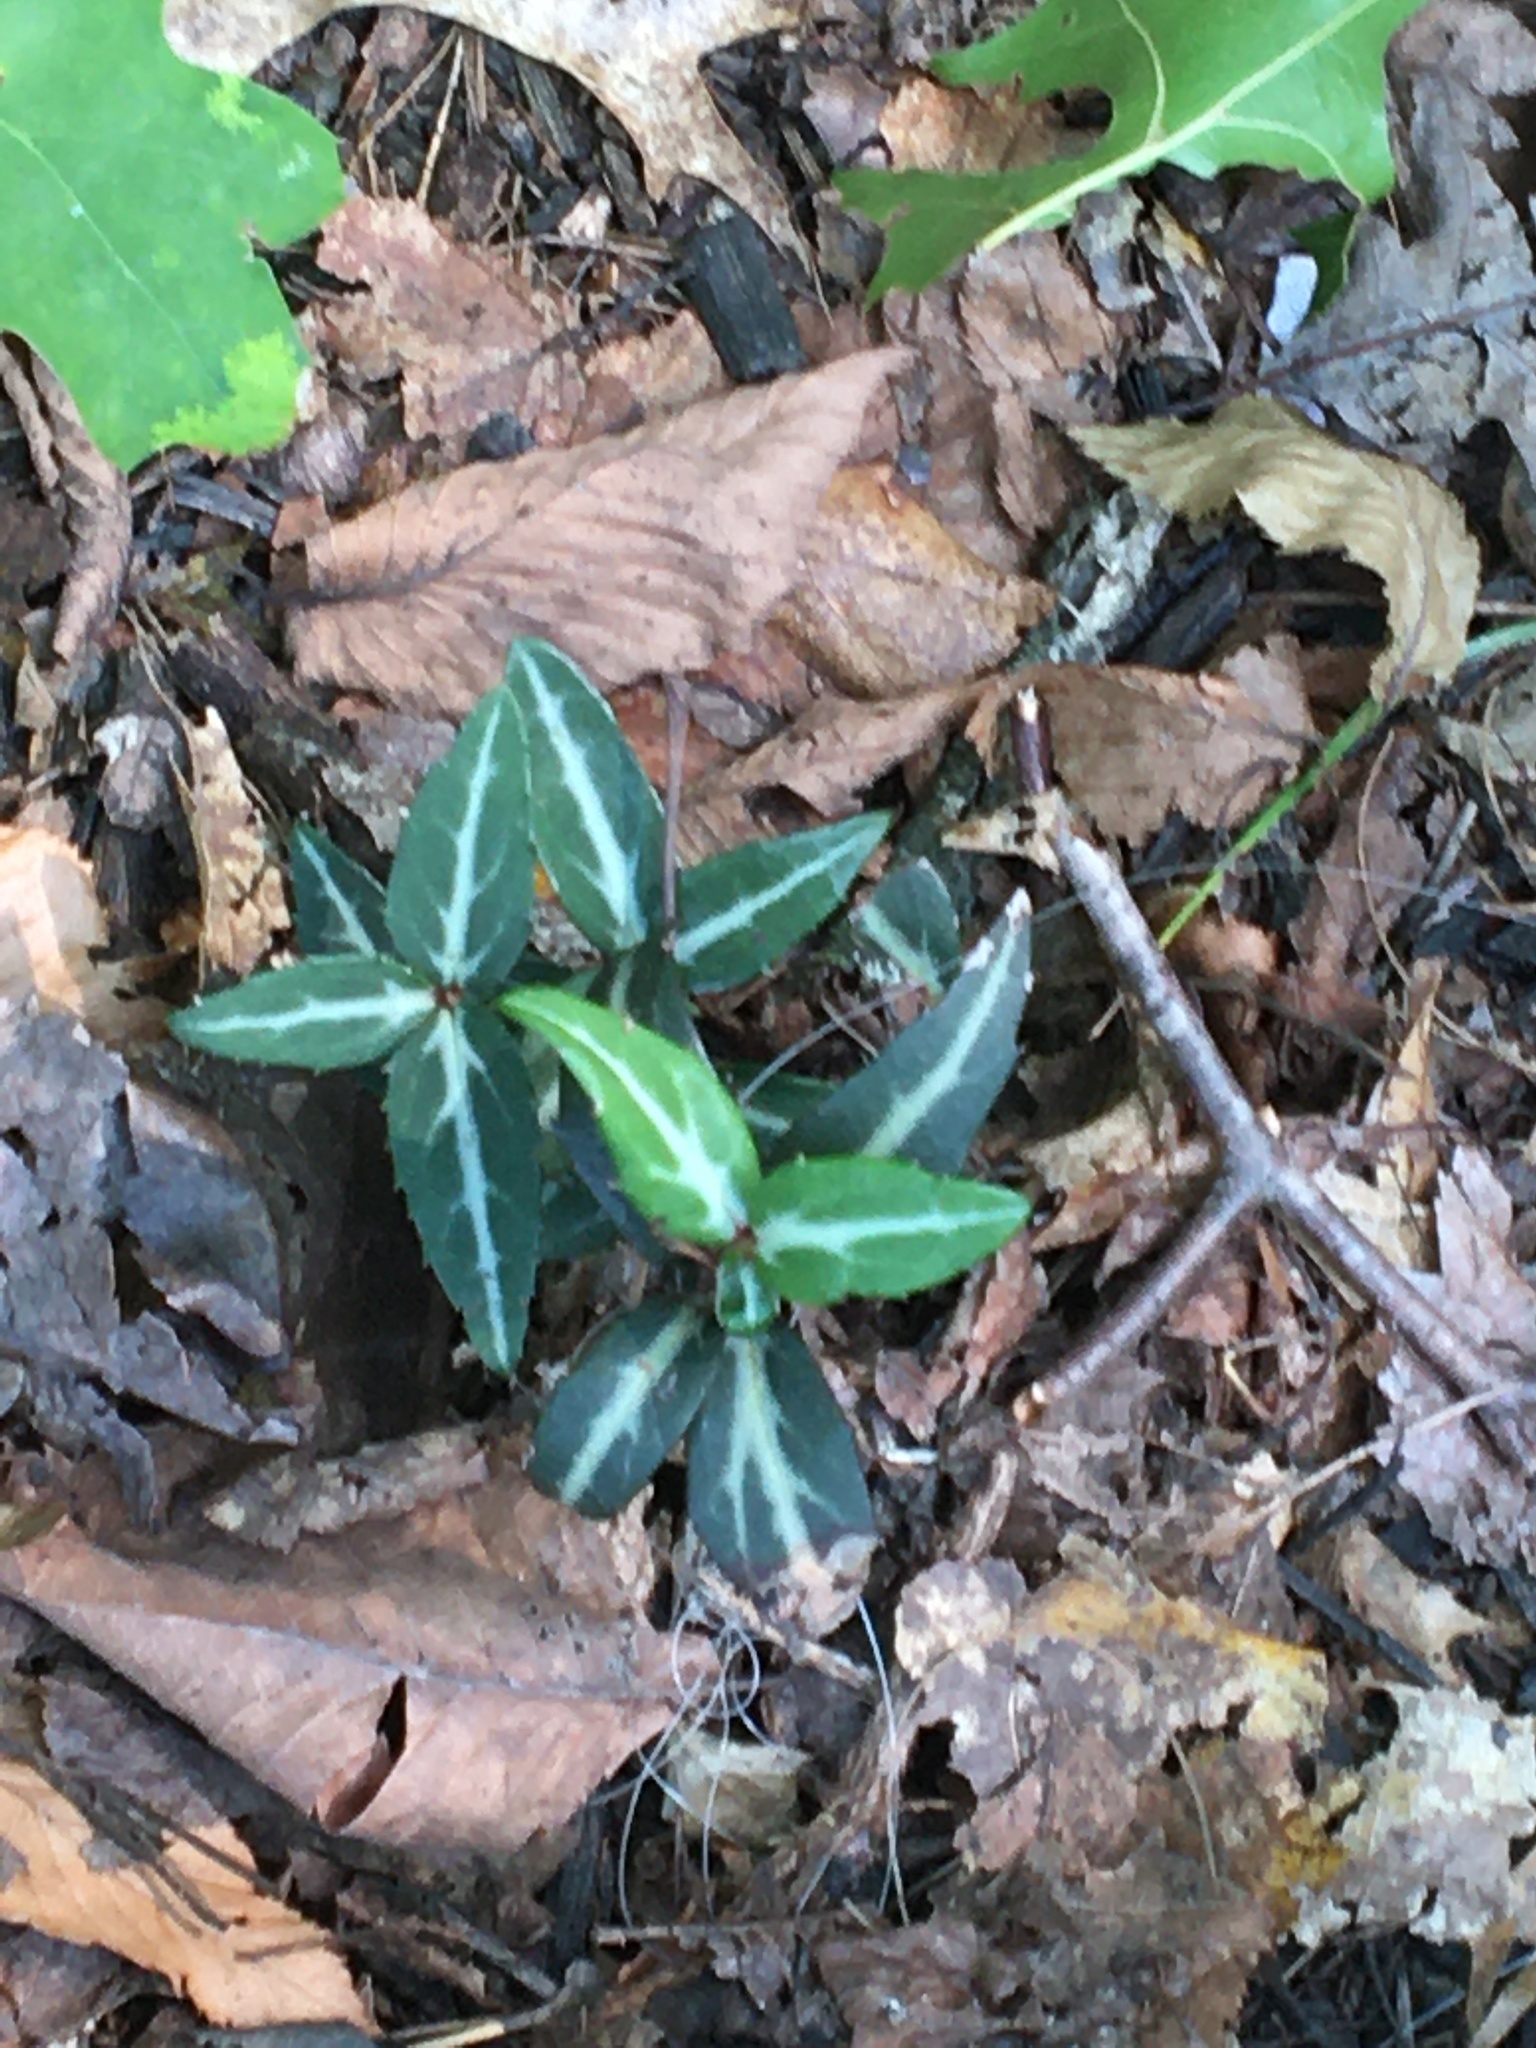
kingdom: Plantae
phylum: Tracheophyta
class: Magnoliopsida
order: Ericales
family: Ericaceae
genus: Chimaphila
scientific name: Chimaphila maculata
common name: Spotted pipsissewa
